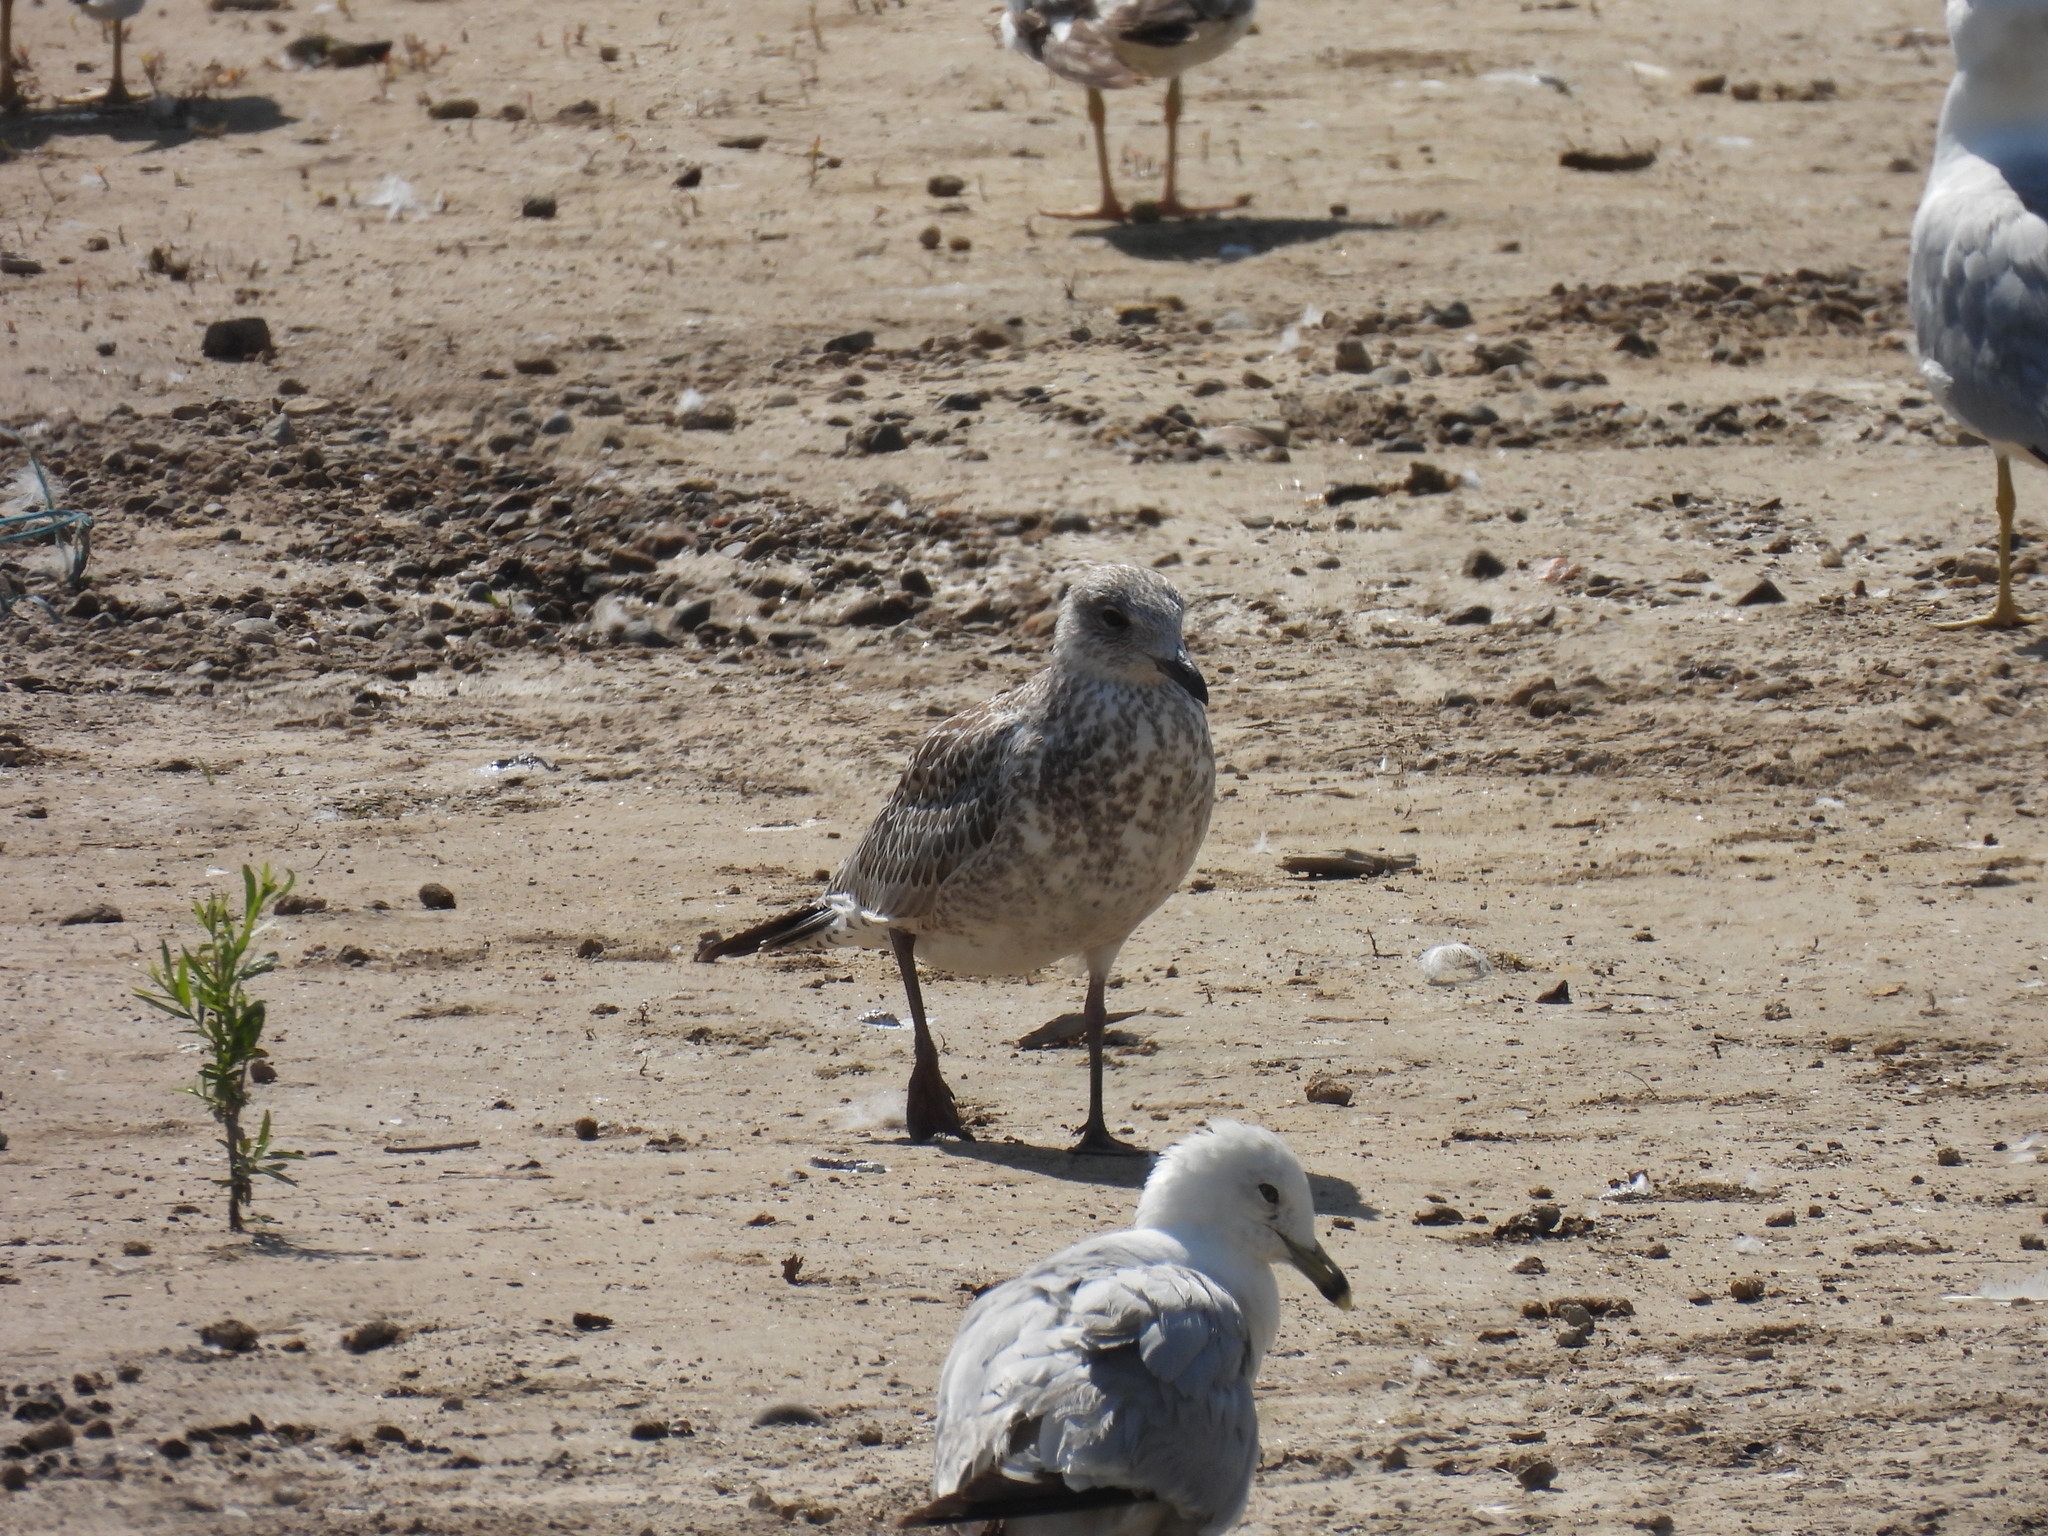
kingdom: Animalia
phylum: Chordata
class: Aves
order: Charadriiformes
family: Laridae
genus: Larus
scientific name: Larus delawarensis
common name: Ring-billed gull
